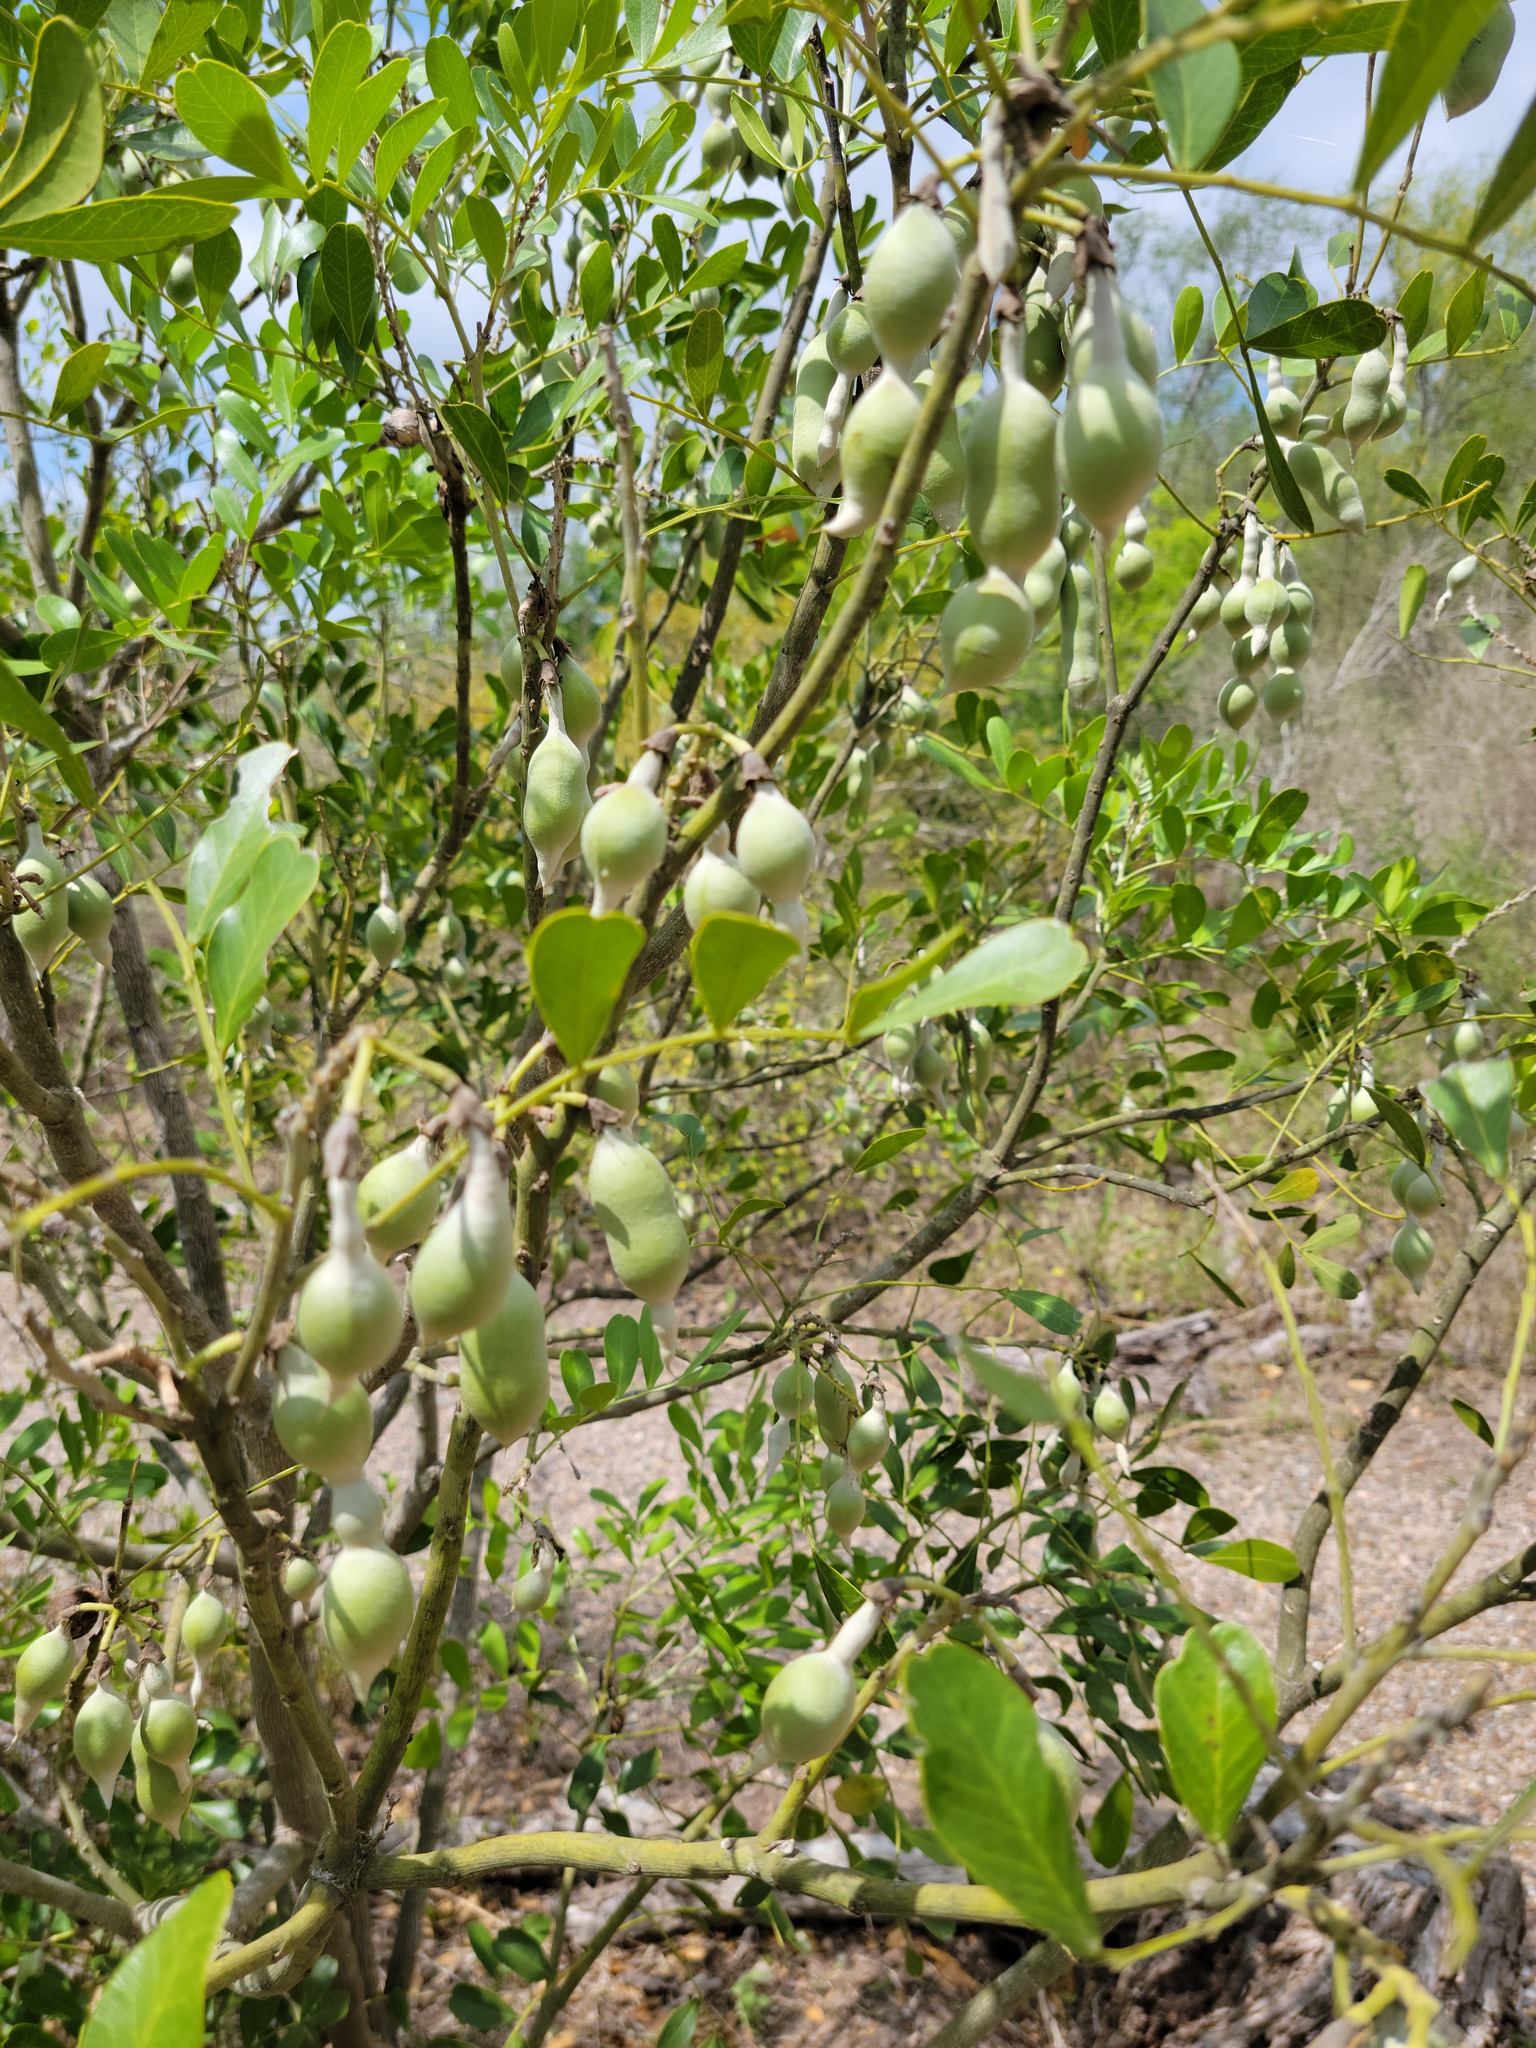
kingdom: Plantae
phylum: Tracheophyta
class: Magnoliopsida
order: Fabales
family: Fabaceae
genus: Dermatophyllum
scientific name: Dermatophyllum secundiflorum
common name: Texas-mountain-laurel
